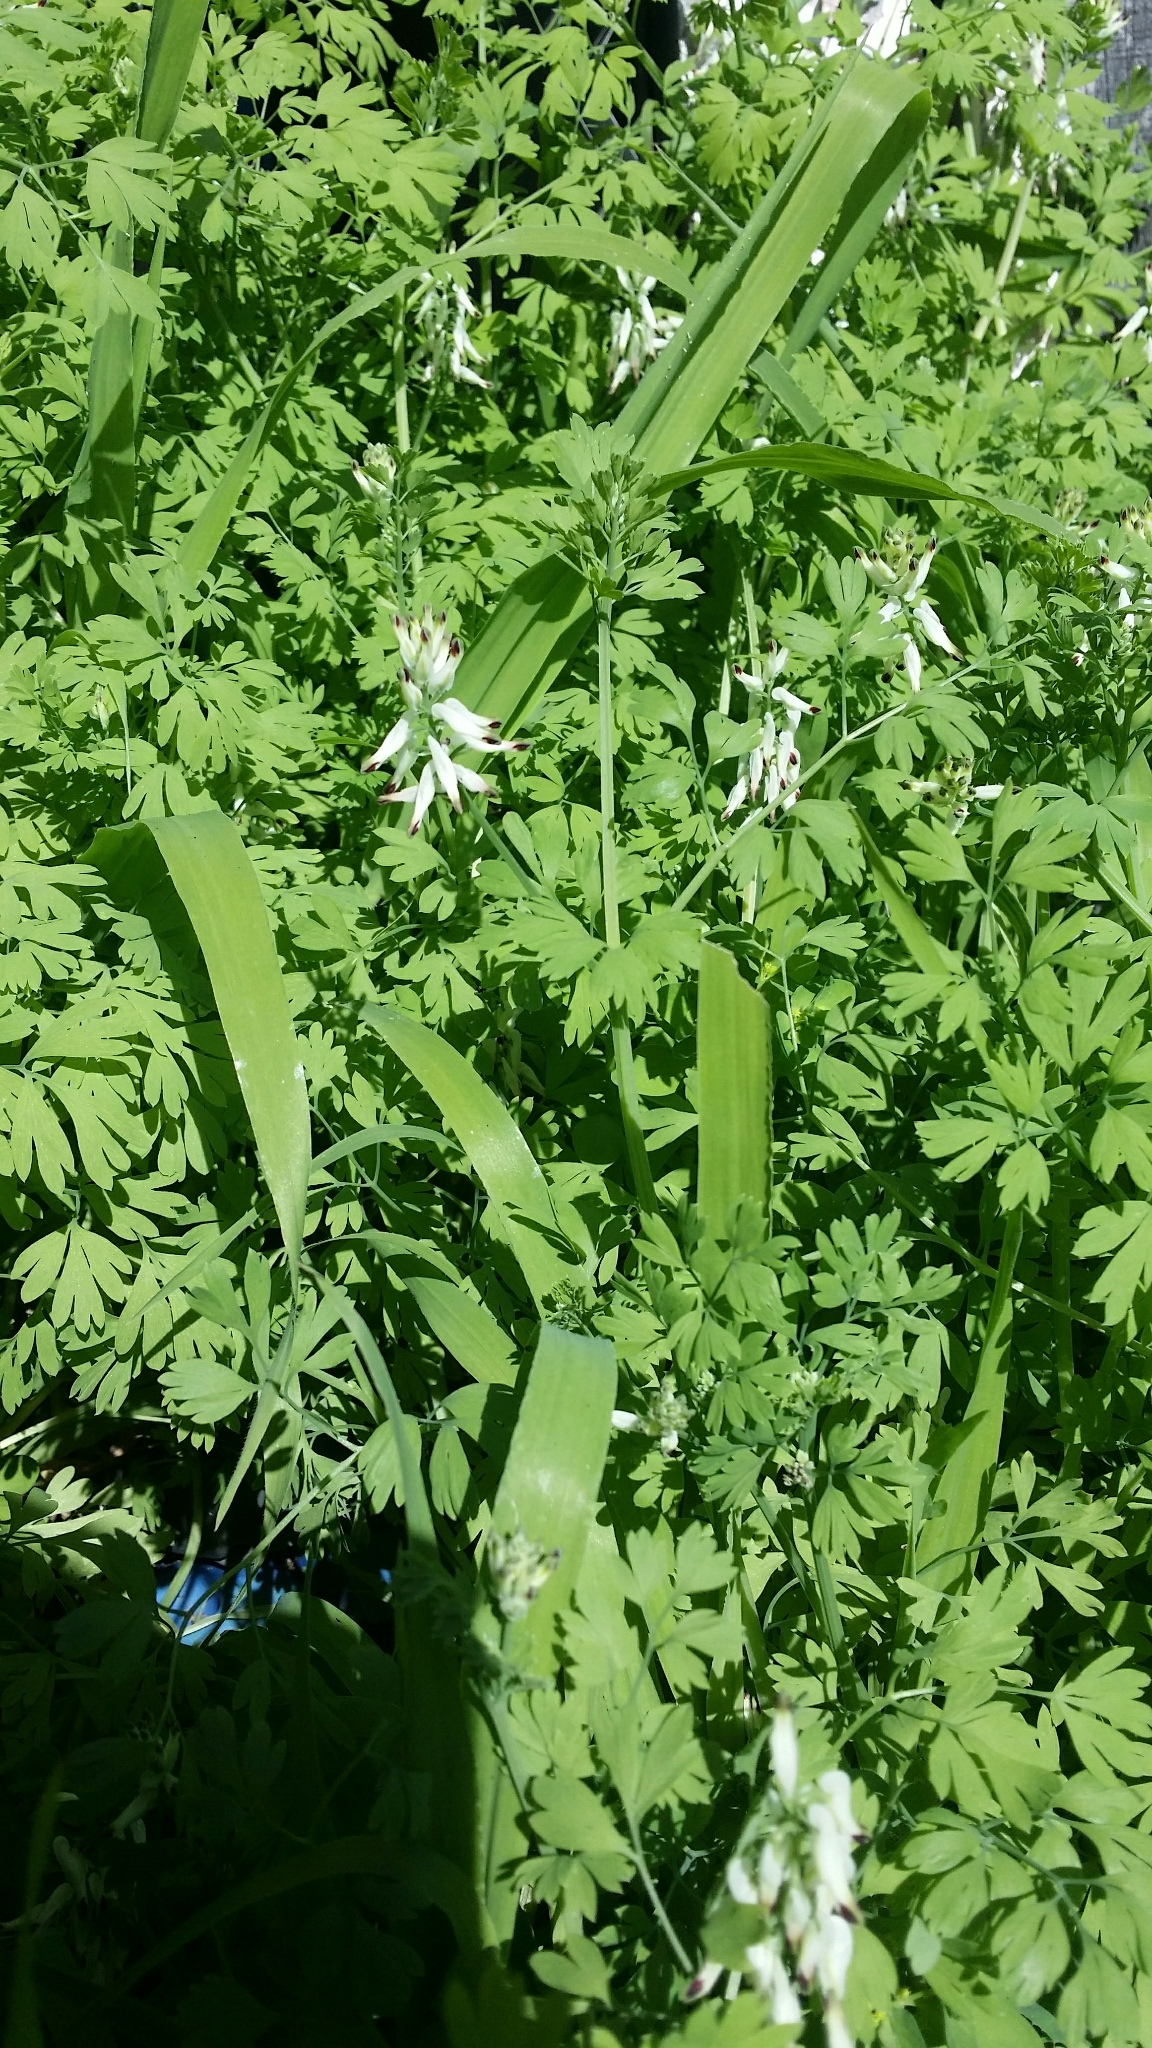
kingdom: Plantae
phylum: Tracheophyta
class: Magnoliopsida
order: Ranunculales
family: Papaveraceae
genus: Fumaria
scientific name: Fumaria capreolata
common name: White ramping-fumitory
